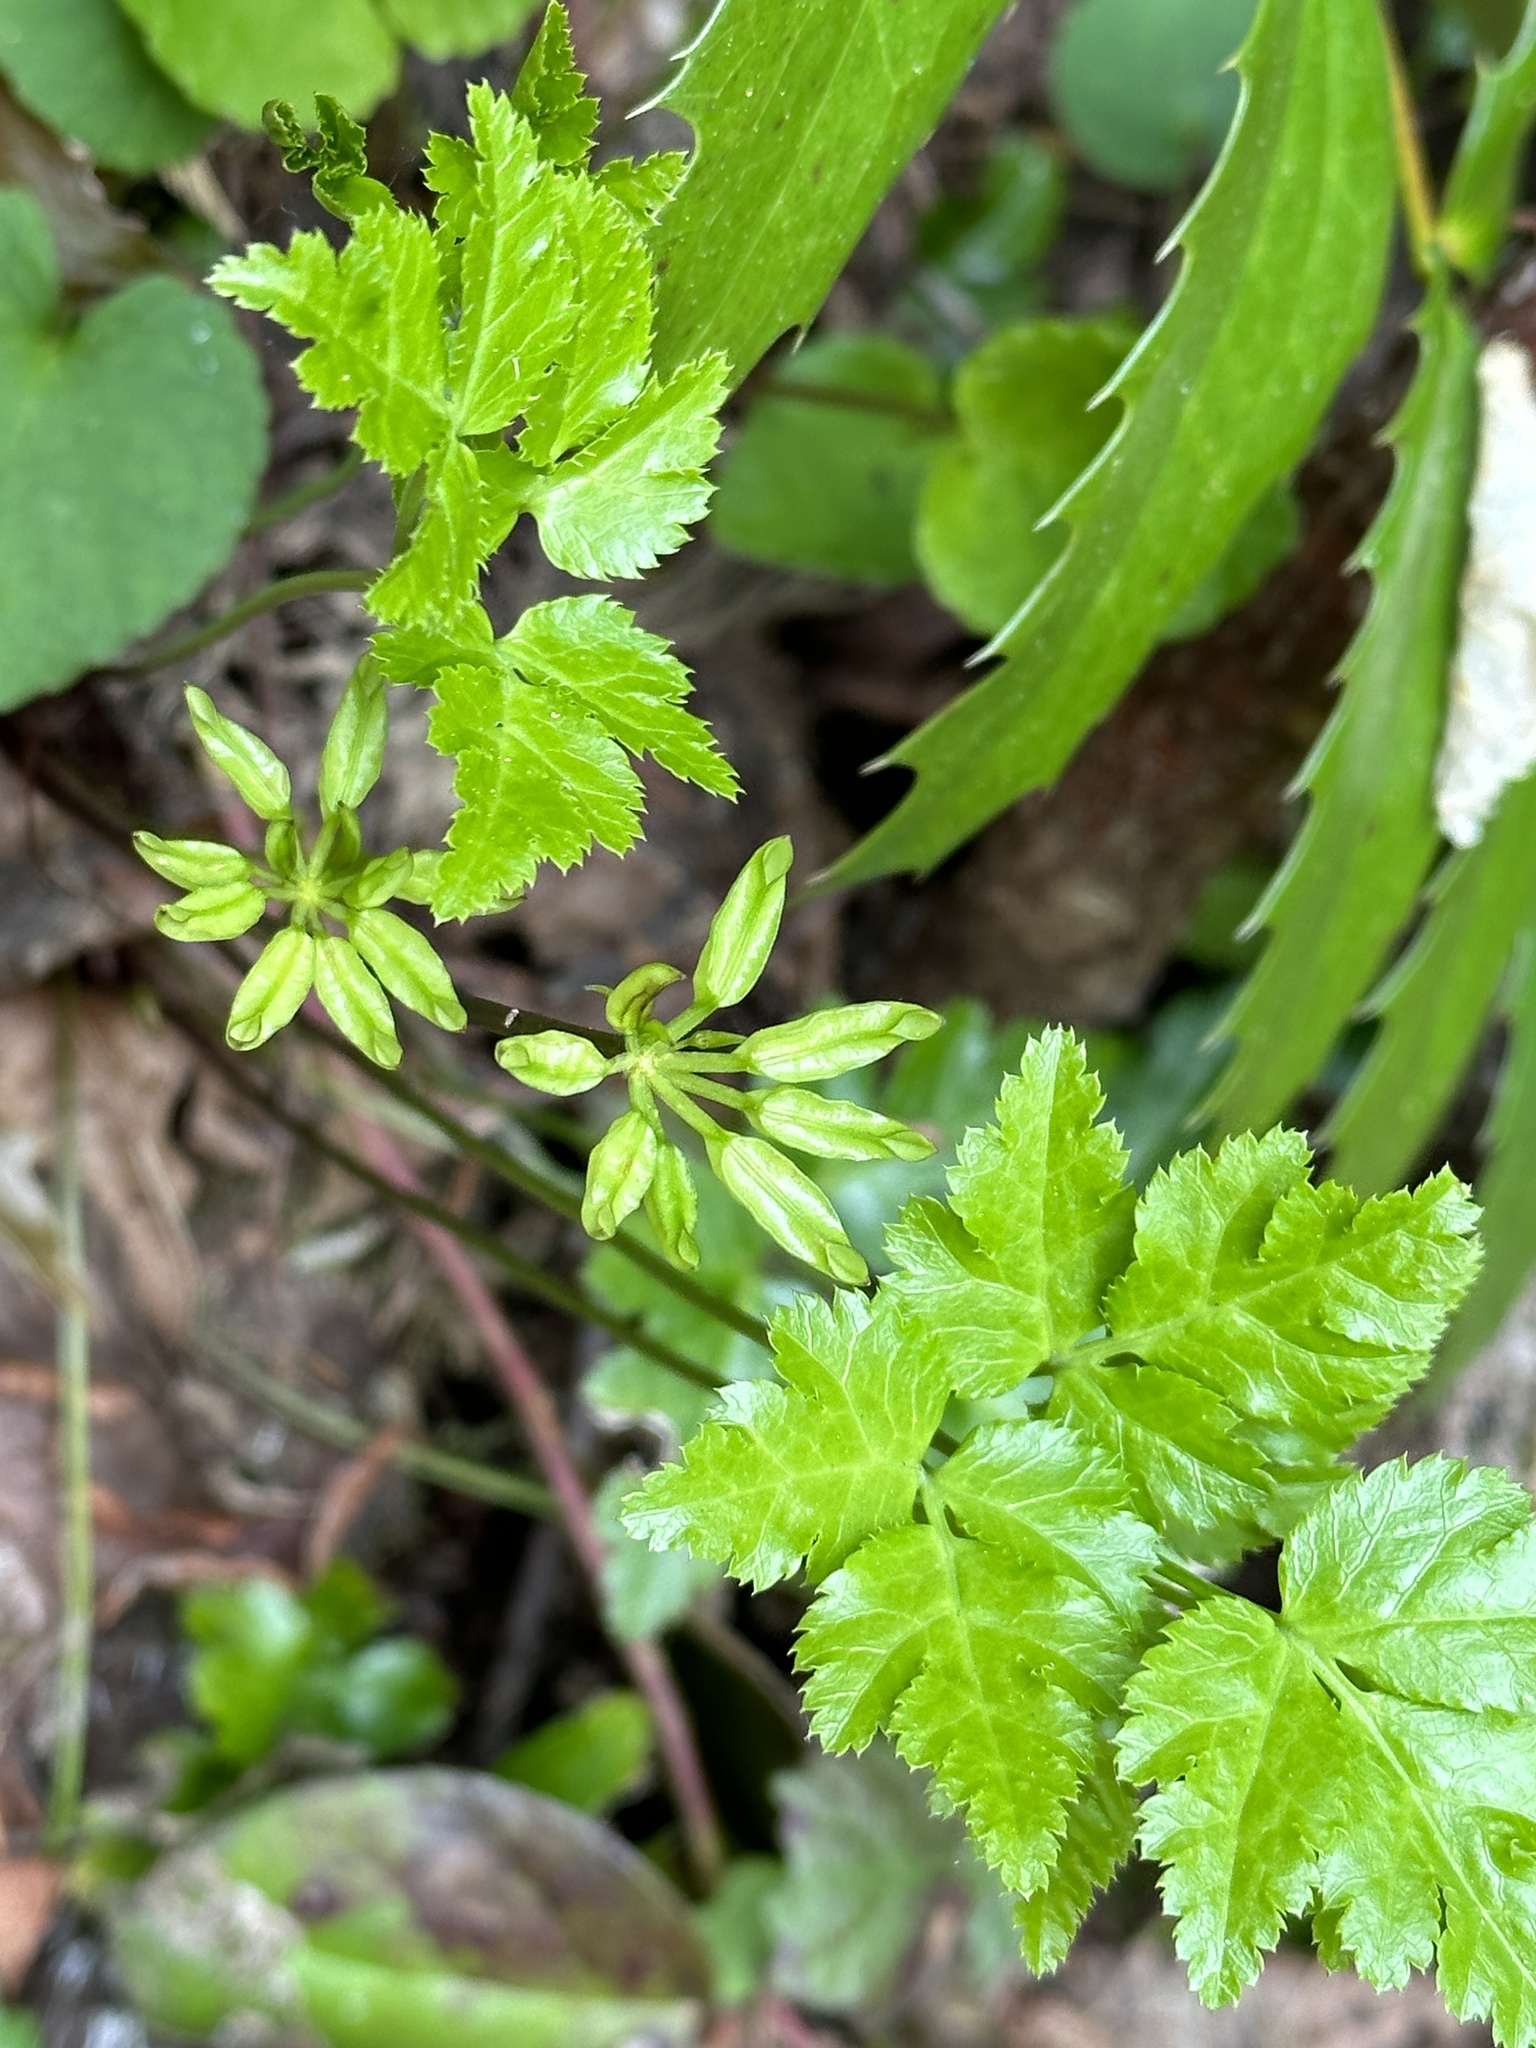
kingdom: Plantae
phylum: Tracheophyta
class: Magnoliopsida
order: Ranunculales
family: Ranunculaceae
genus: Coptis
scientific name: Coptis laciniata
